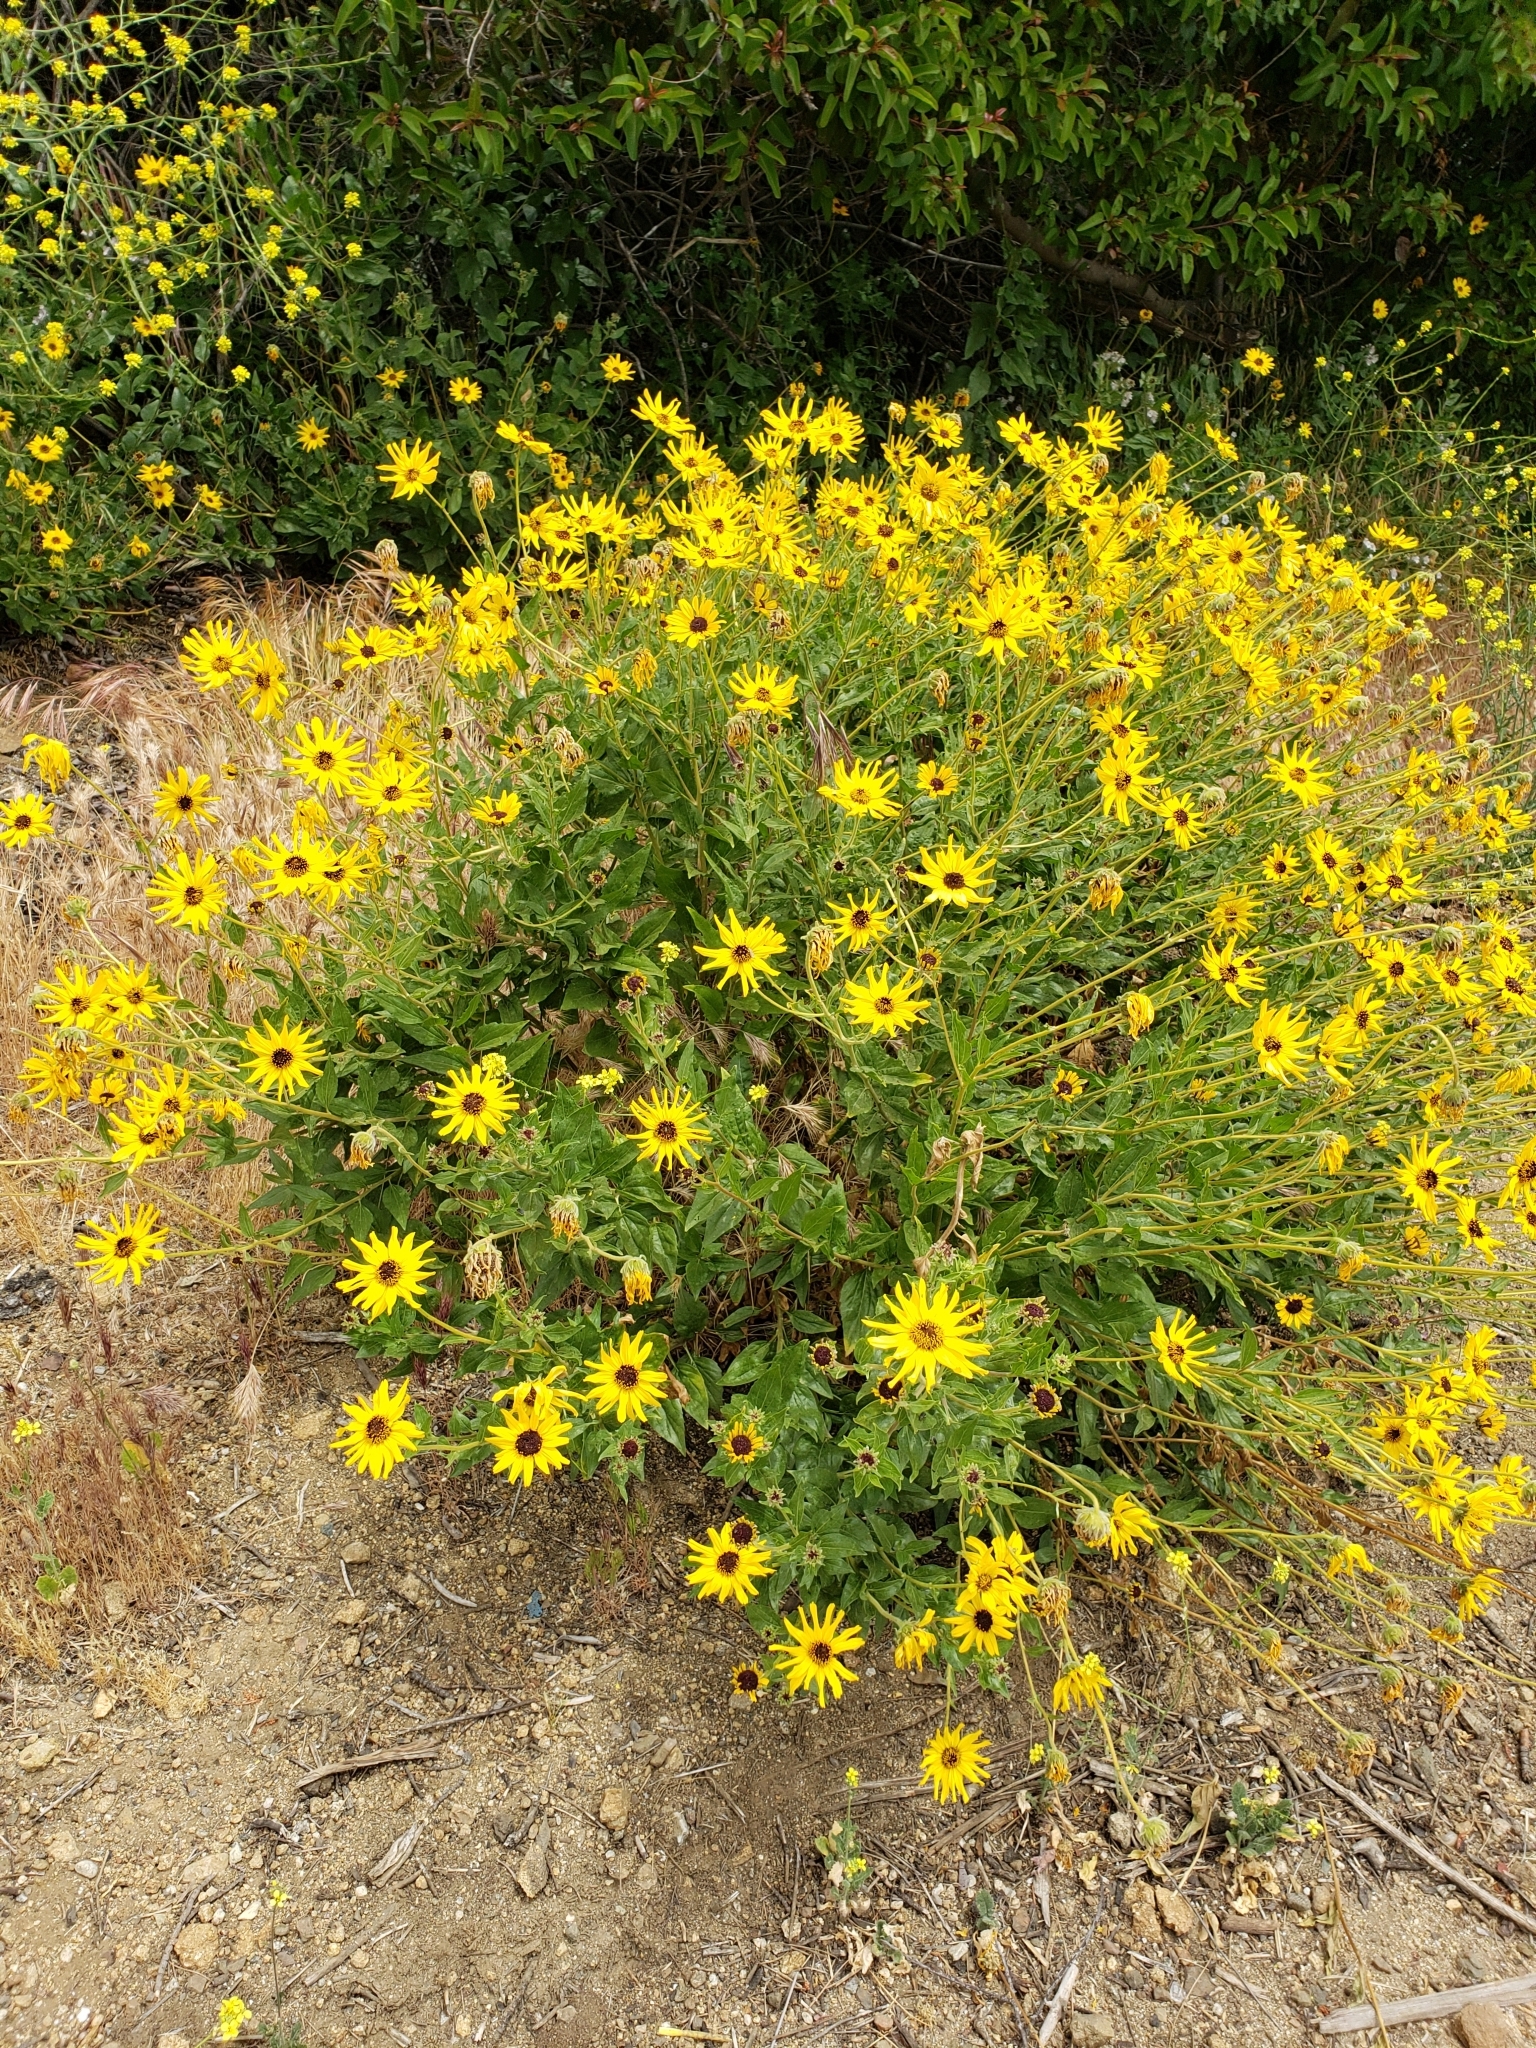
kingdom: Plantae
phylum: Tracheophyta
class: Magnoliopsida
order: Asterales
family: Asteraceae
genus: Encelia
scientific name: Encelia californica
